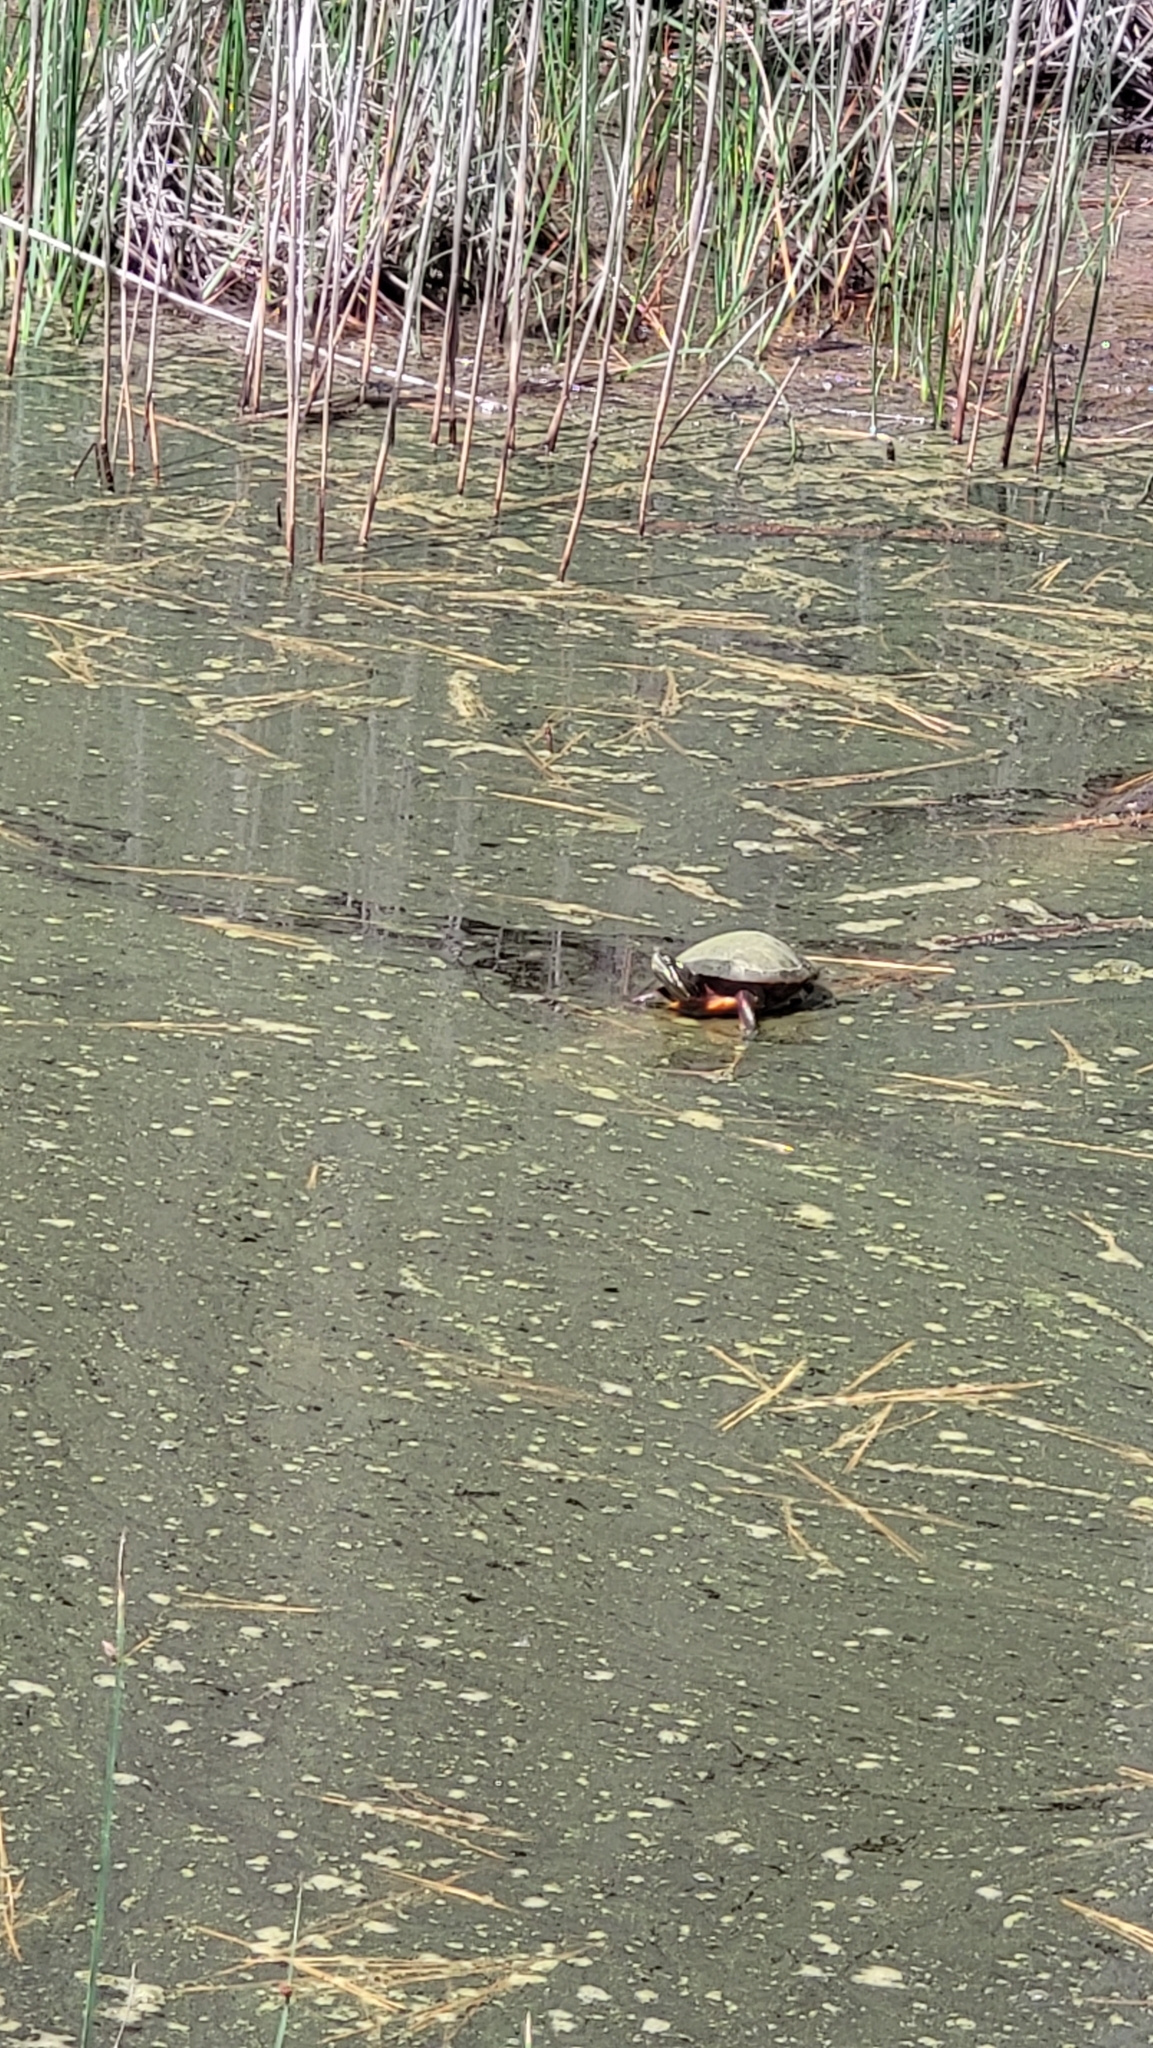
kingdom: Animalia
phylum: Chordata
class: Testudines
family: Emydidae
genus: Chrysemys
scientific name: Chrysemys picta
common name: Painted turtle
